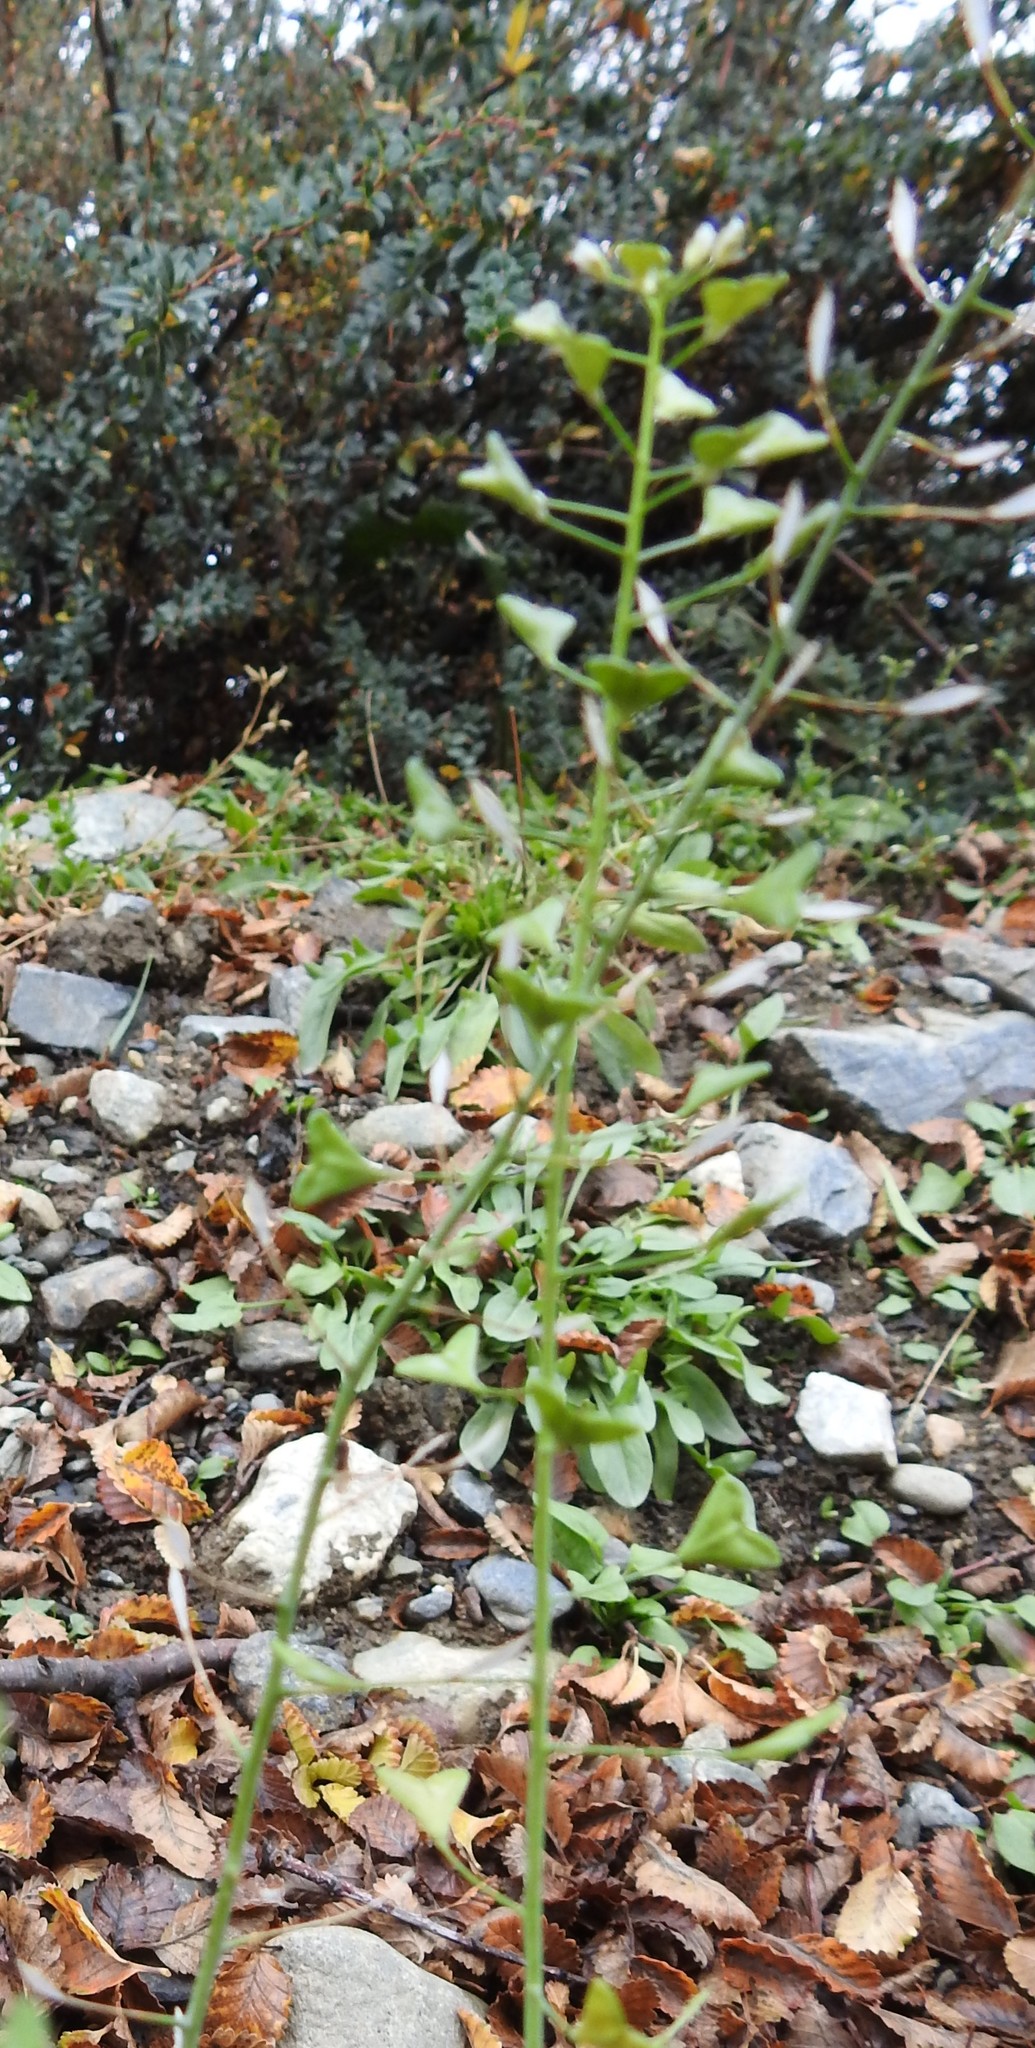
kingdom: Plantae
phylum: Tracheophyta
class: Magnoliopsida
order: Brassicales
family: Brassicaceae
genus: Capsella
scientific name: Capsella bursa-pastoris
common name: Shepherd's purse
